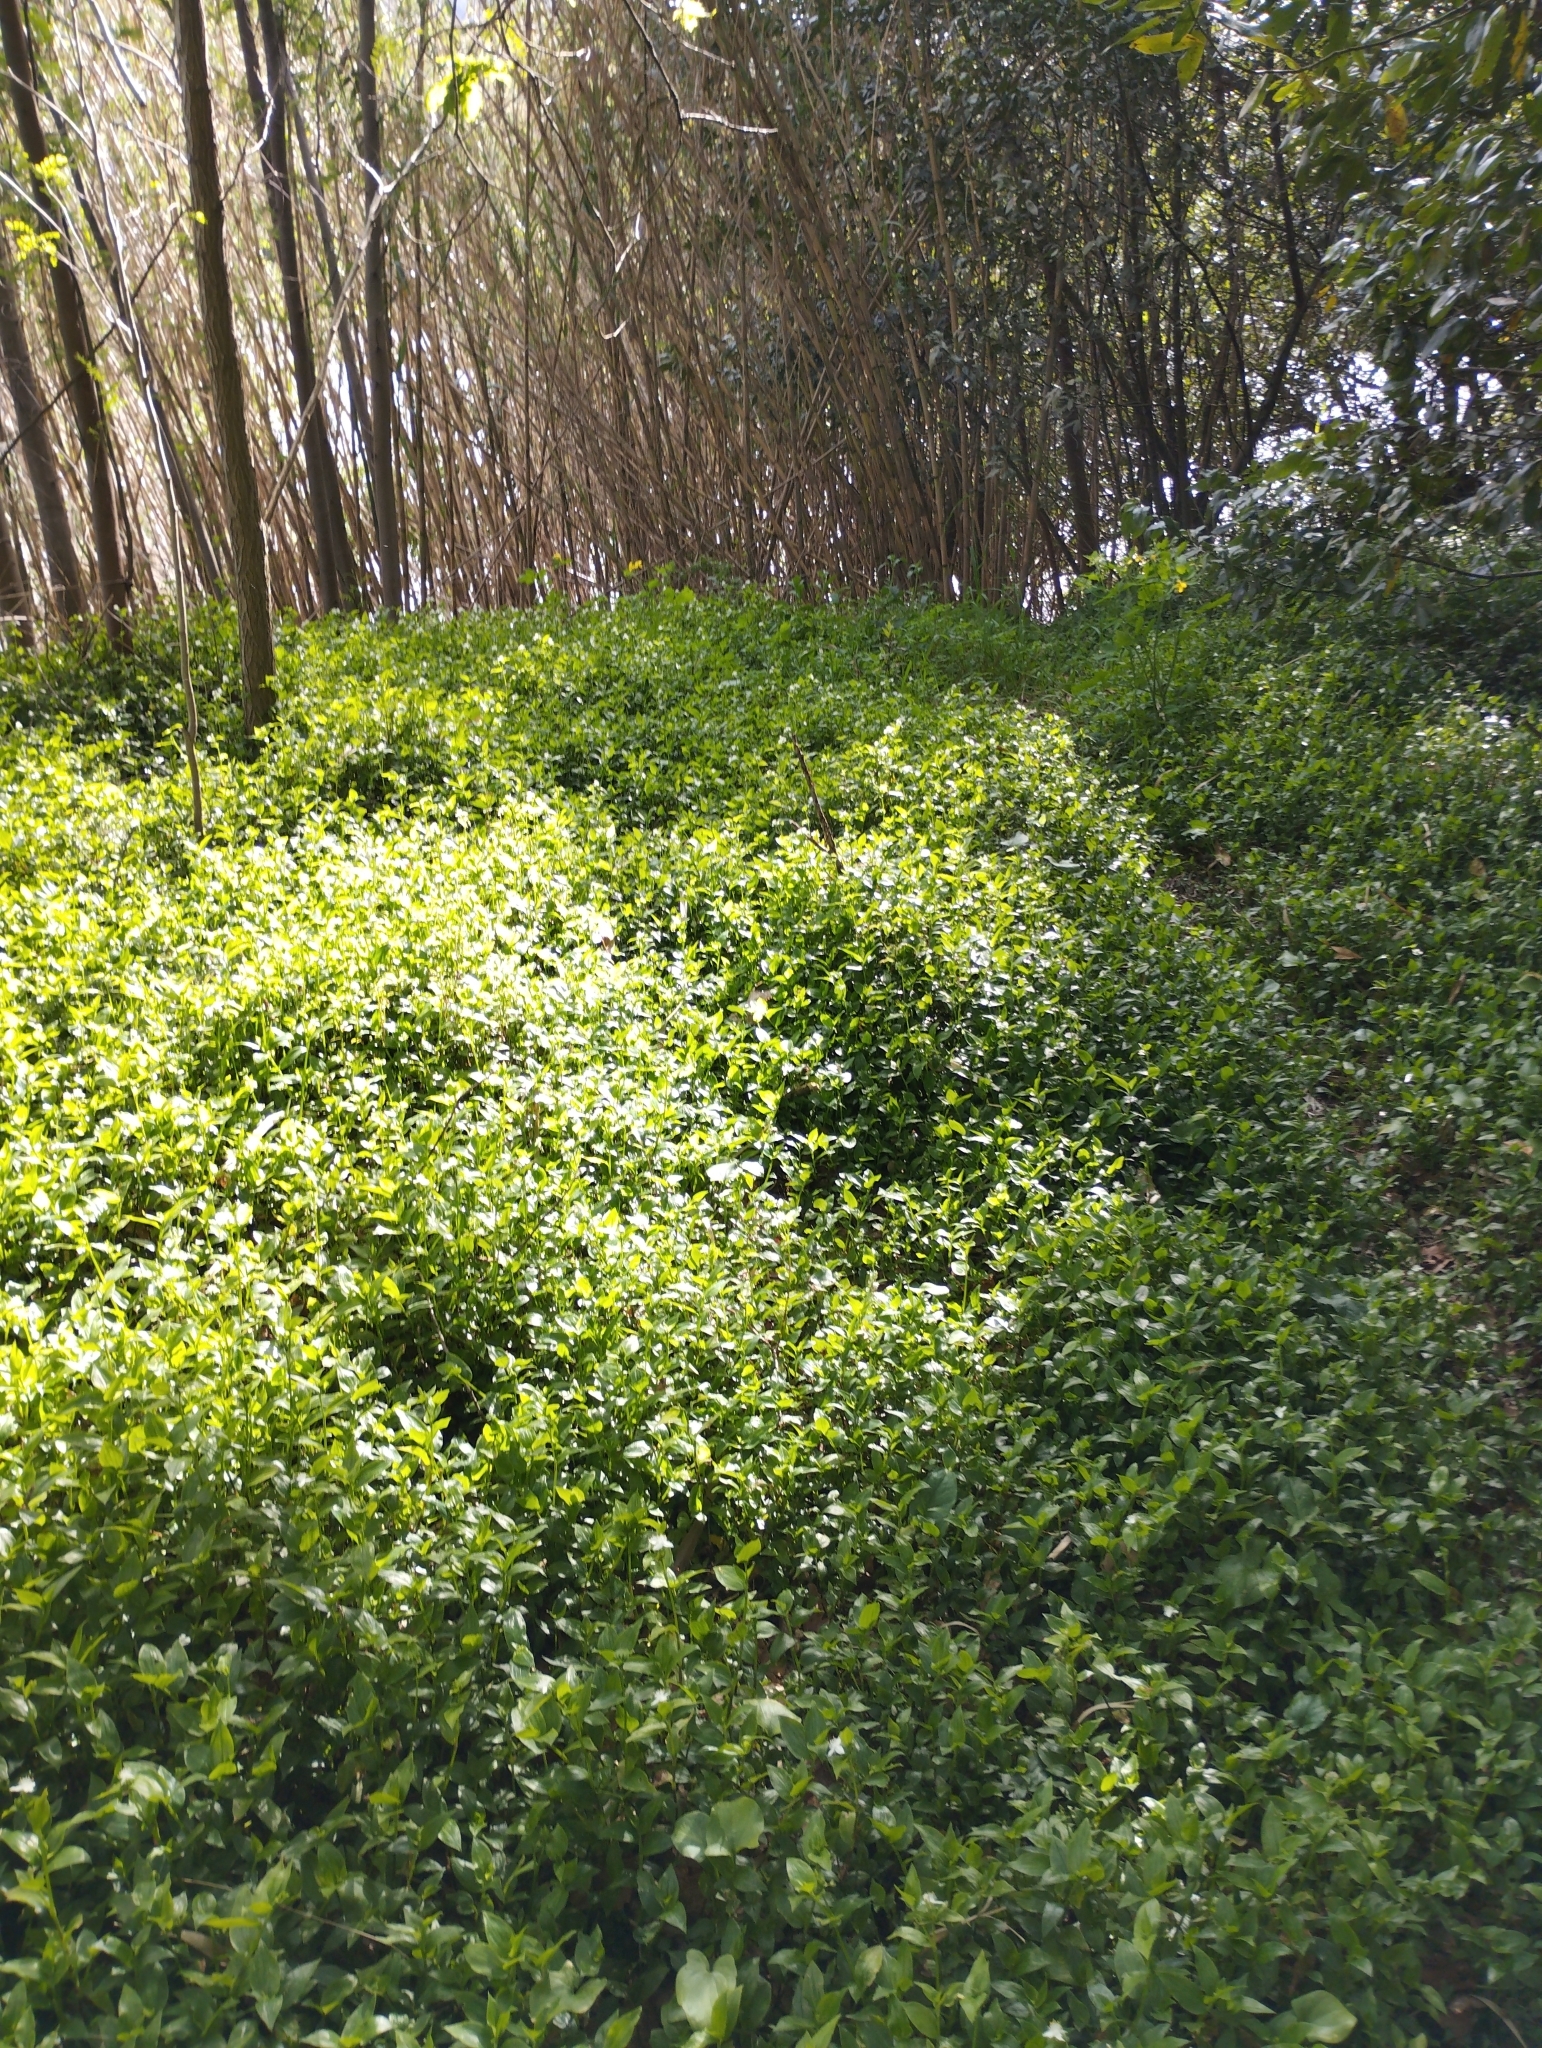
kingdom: Plantae
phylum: Tracheophyta
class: Liliopsida
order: Commelinales
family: Commelinaceae
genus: Tradescantia
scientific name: Tradescantia fluminensis
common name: Wandering-jew
